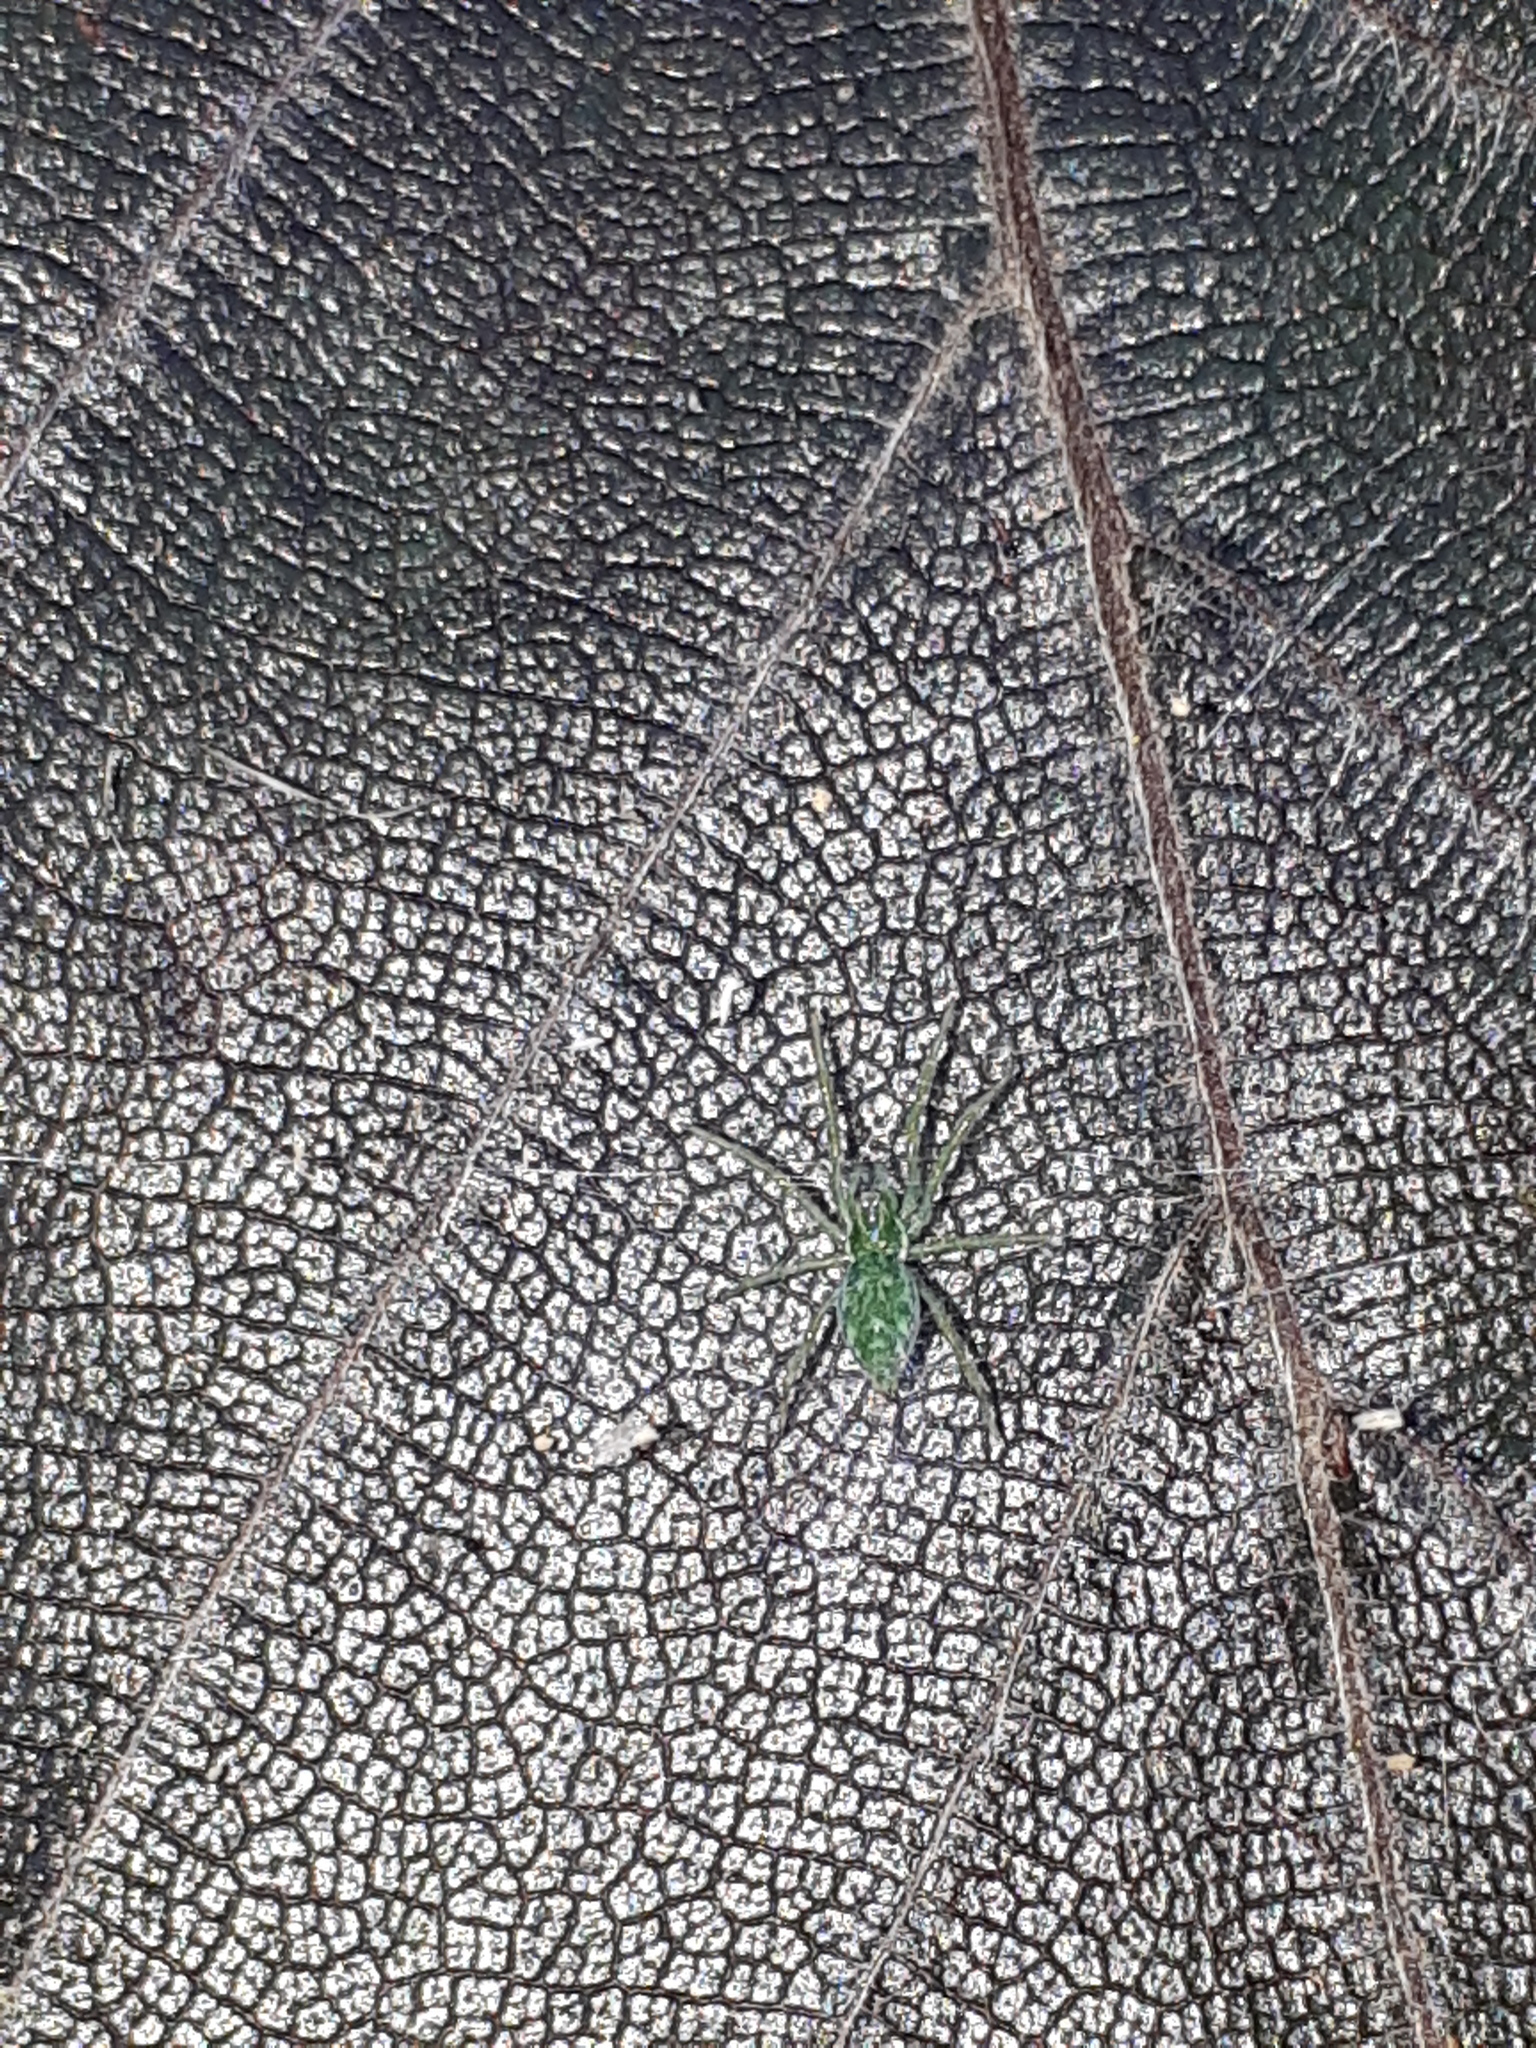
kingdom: Animalia
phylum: Arthropoda
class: Arachnida
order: Araneae
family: Dictynidae
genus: Nigma
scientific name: Nigma walckenaeri
